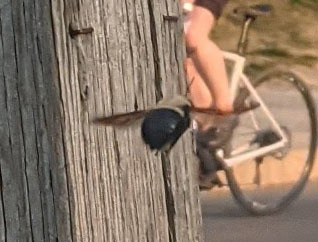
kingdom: Animalia
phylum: Arthropoda
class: Insecta
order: Hymenoptera
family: Apidae
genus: Xylocopa
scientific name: Xylocopa virginica
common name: Carpenter bee
